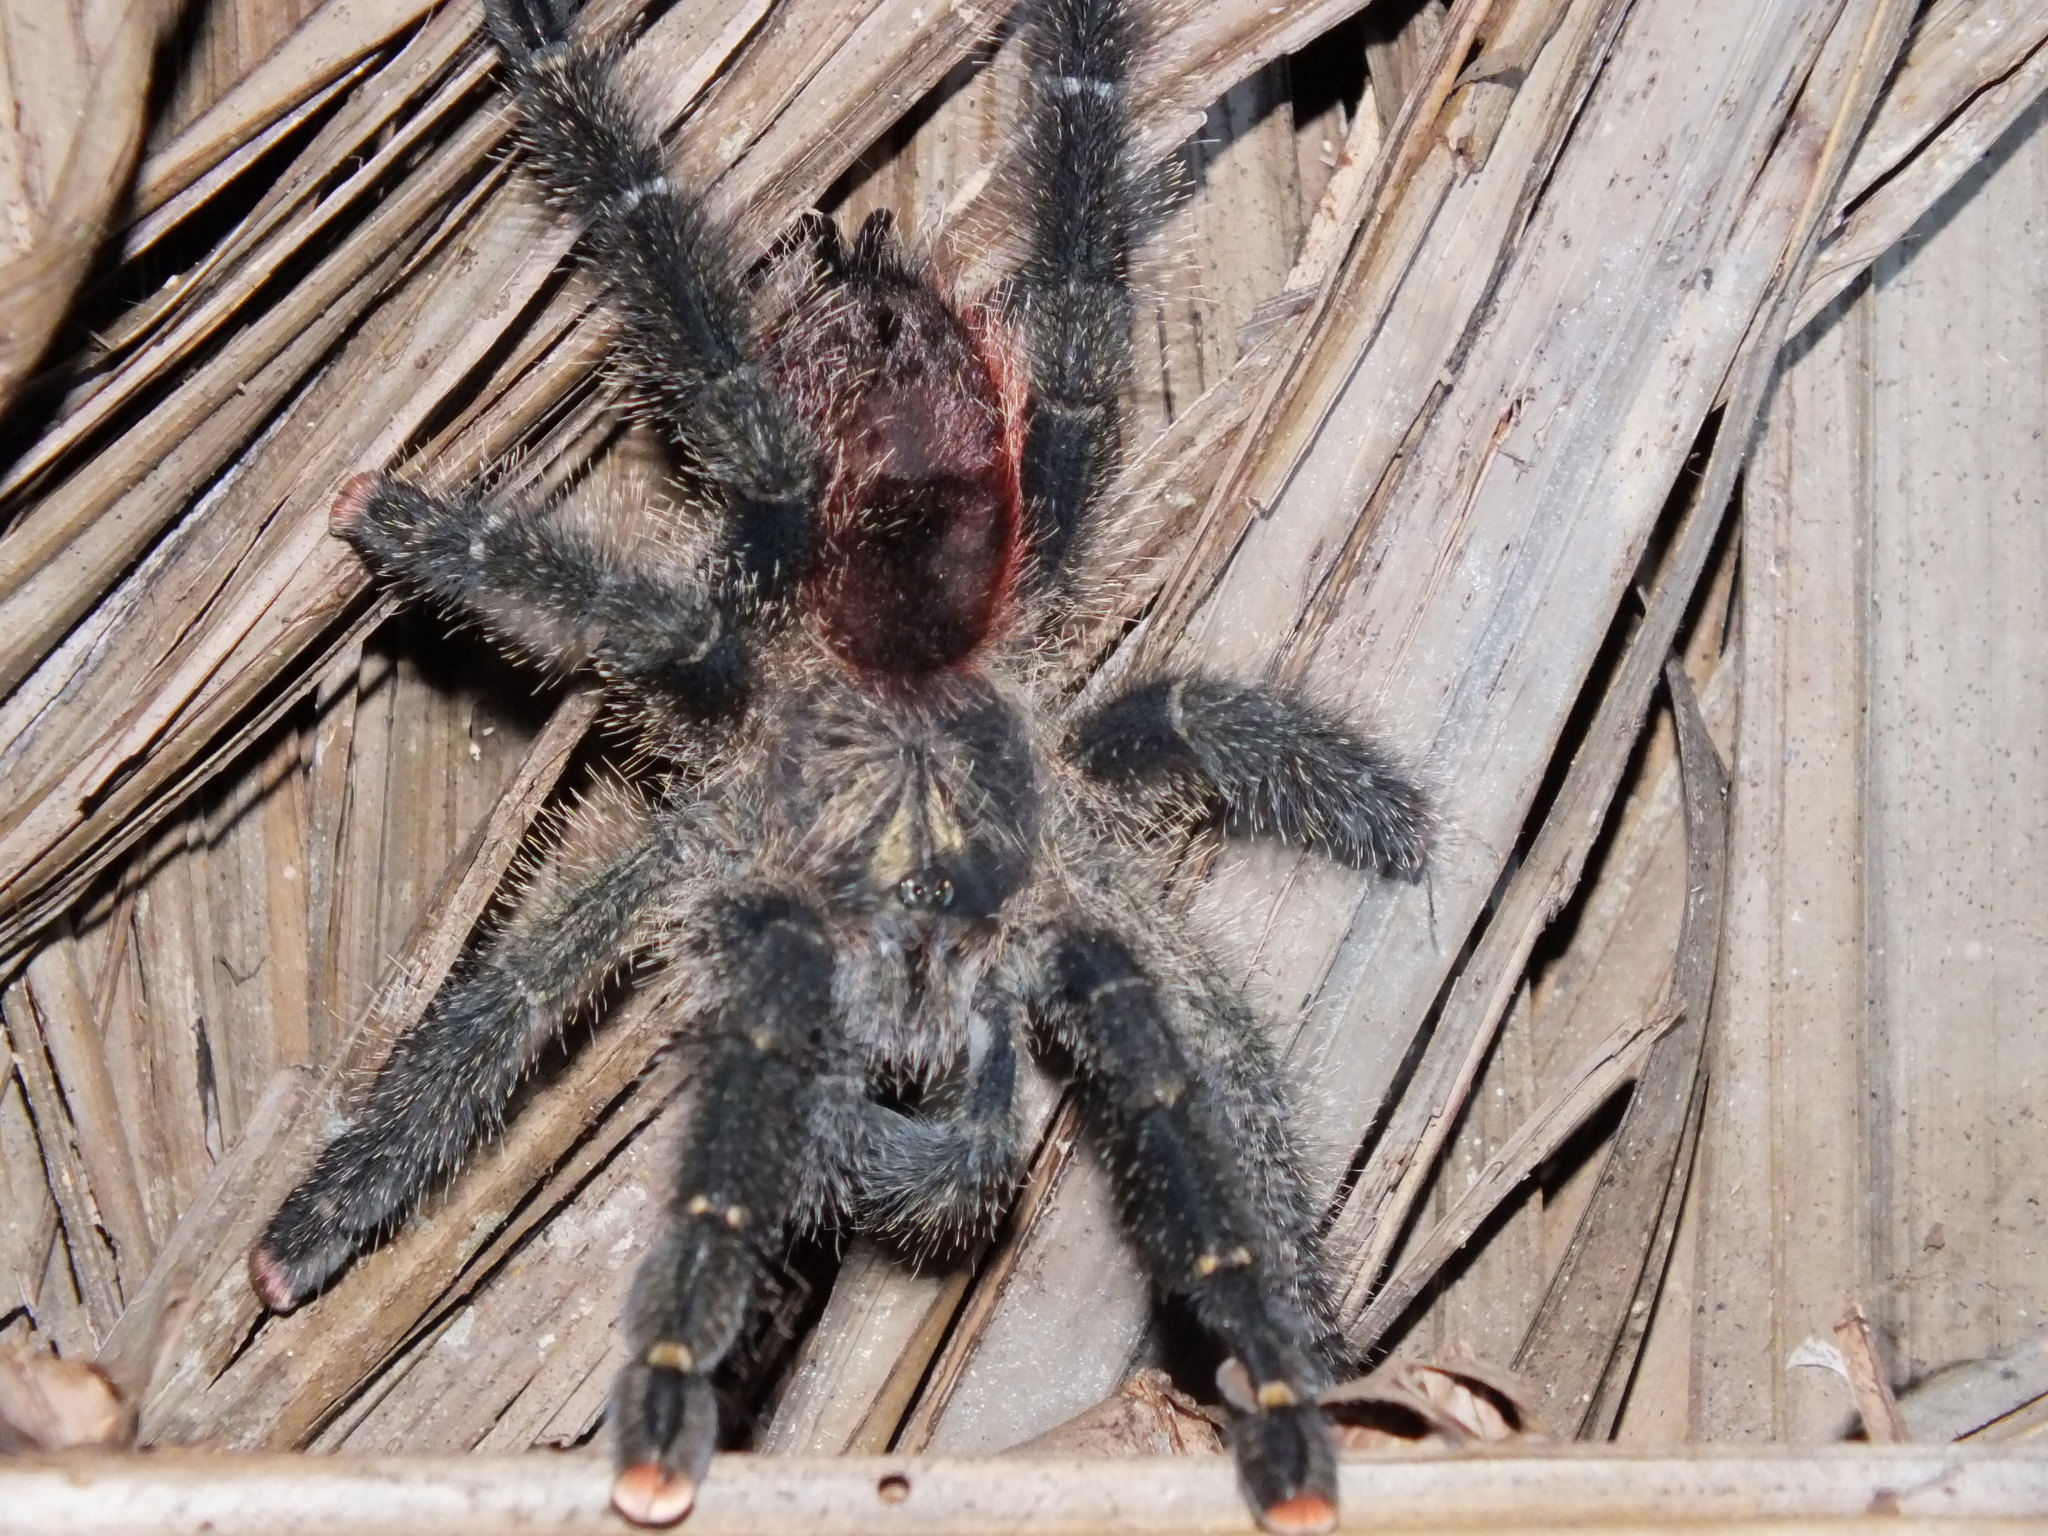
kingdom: Animalia
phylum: Arthropoda
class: Arachnida
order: Araneae
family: Theraphosidae
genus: Avicularia
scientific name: Avicularia juruensis
